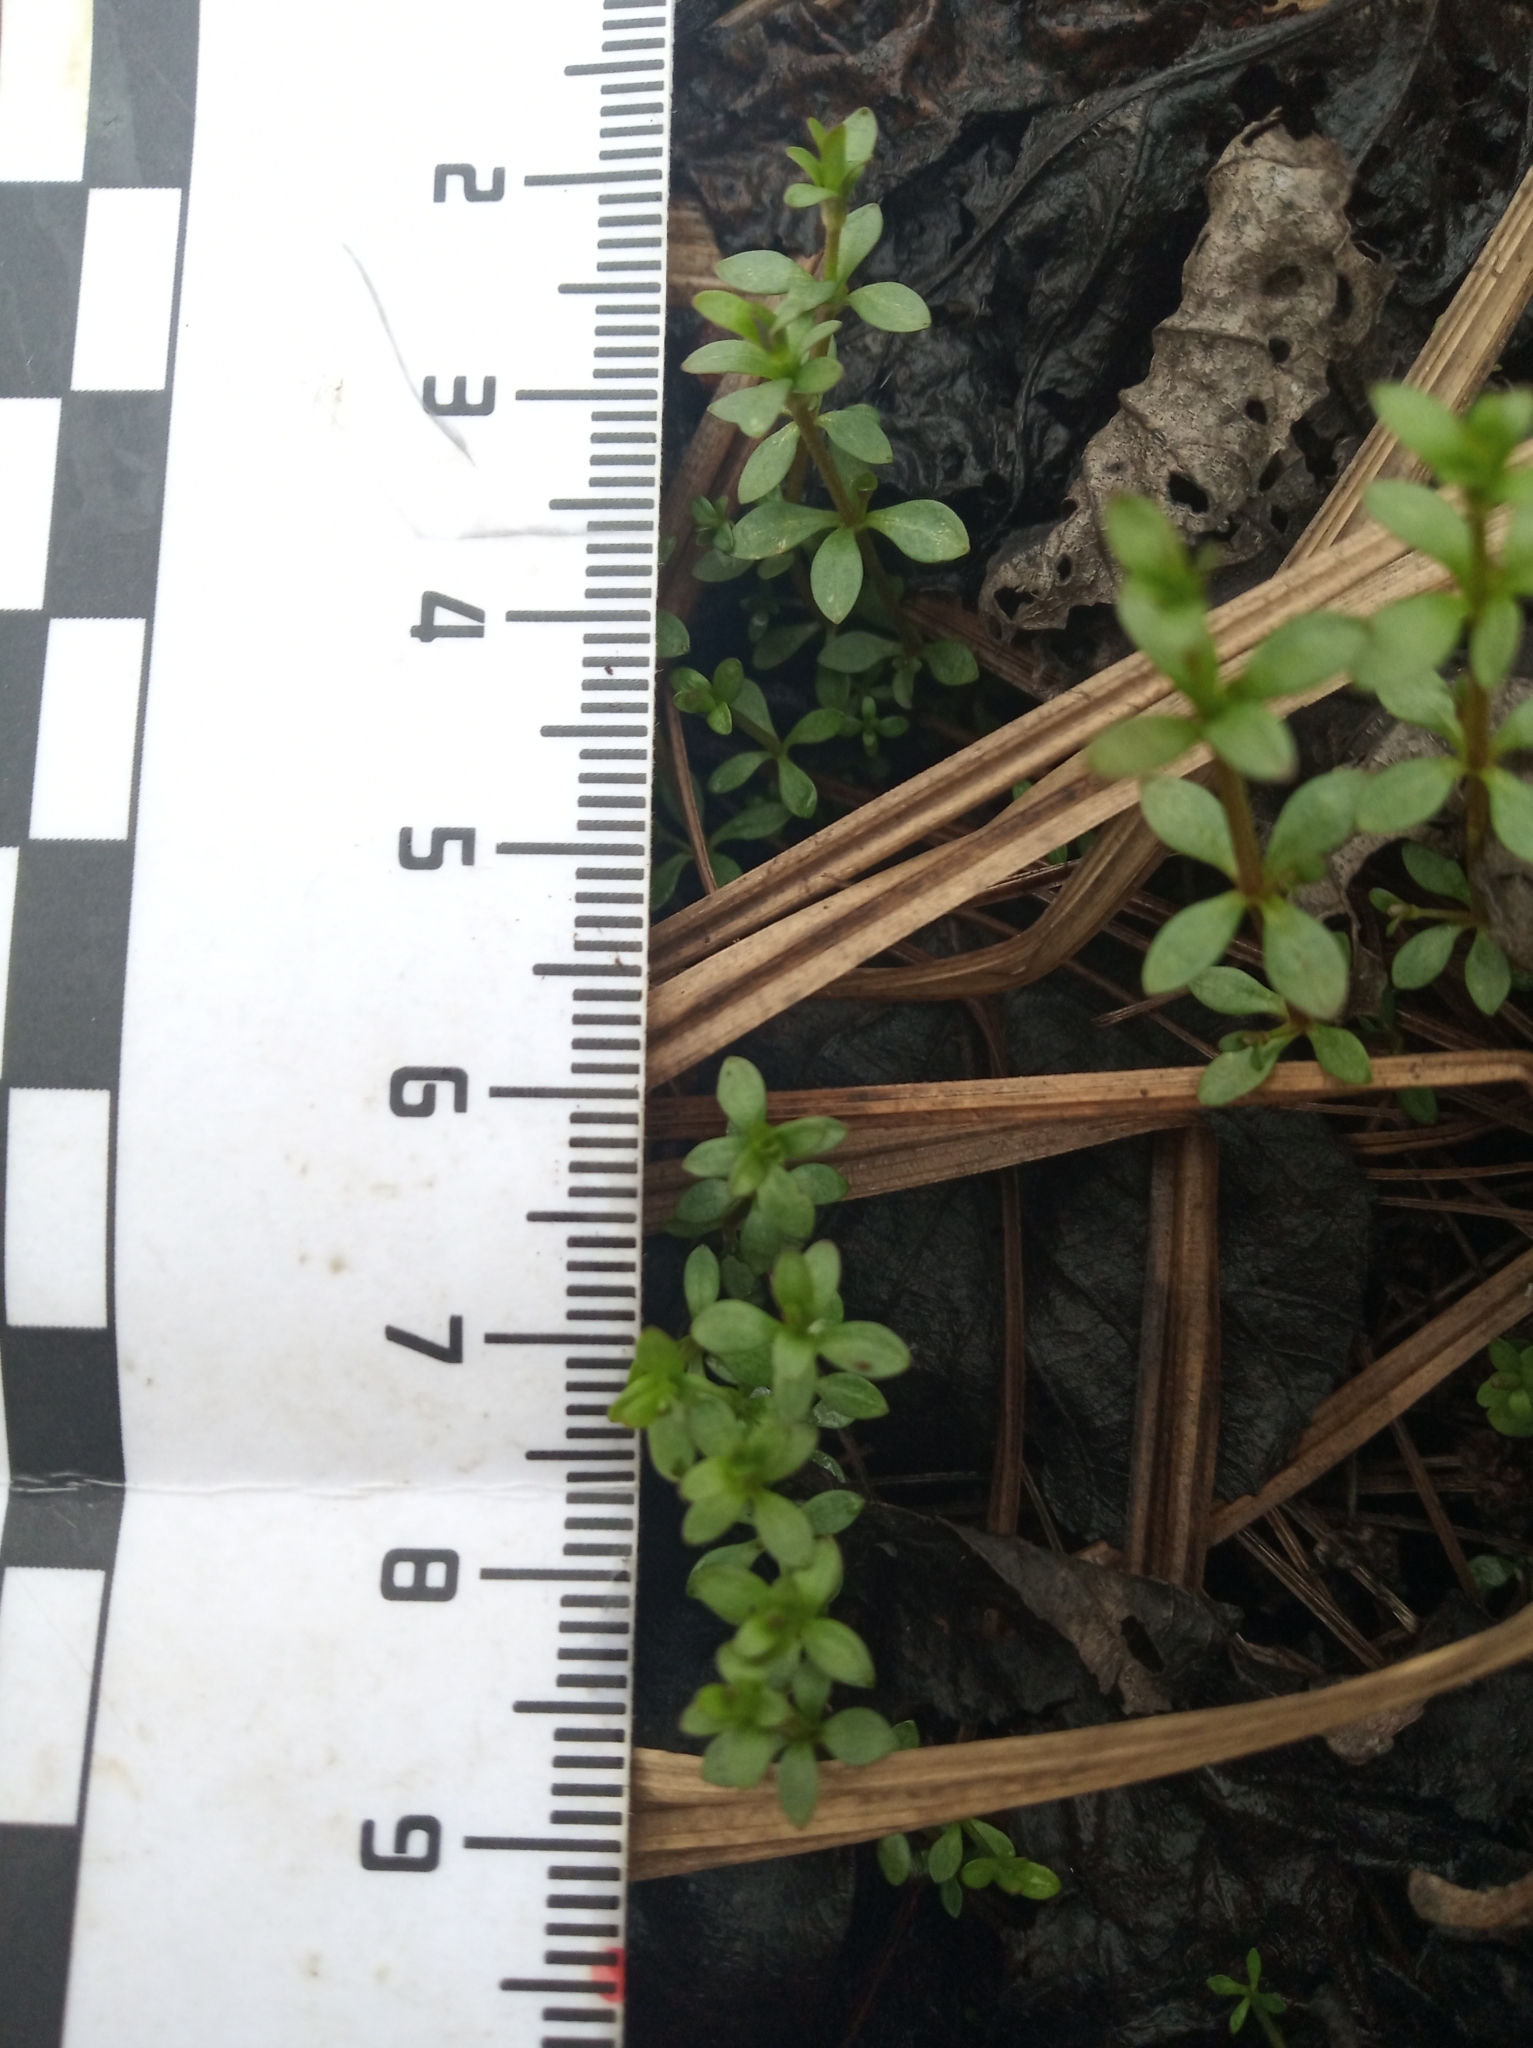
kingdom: Plantae
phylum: Tracheophyta
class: Magnoliopsida
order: Gentianales
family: Rubiaceae
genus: Galium
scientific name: Galium palustre
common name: Common marsh-bedstraw
